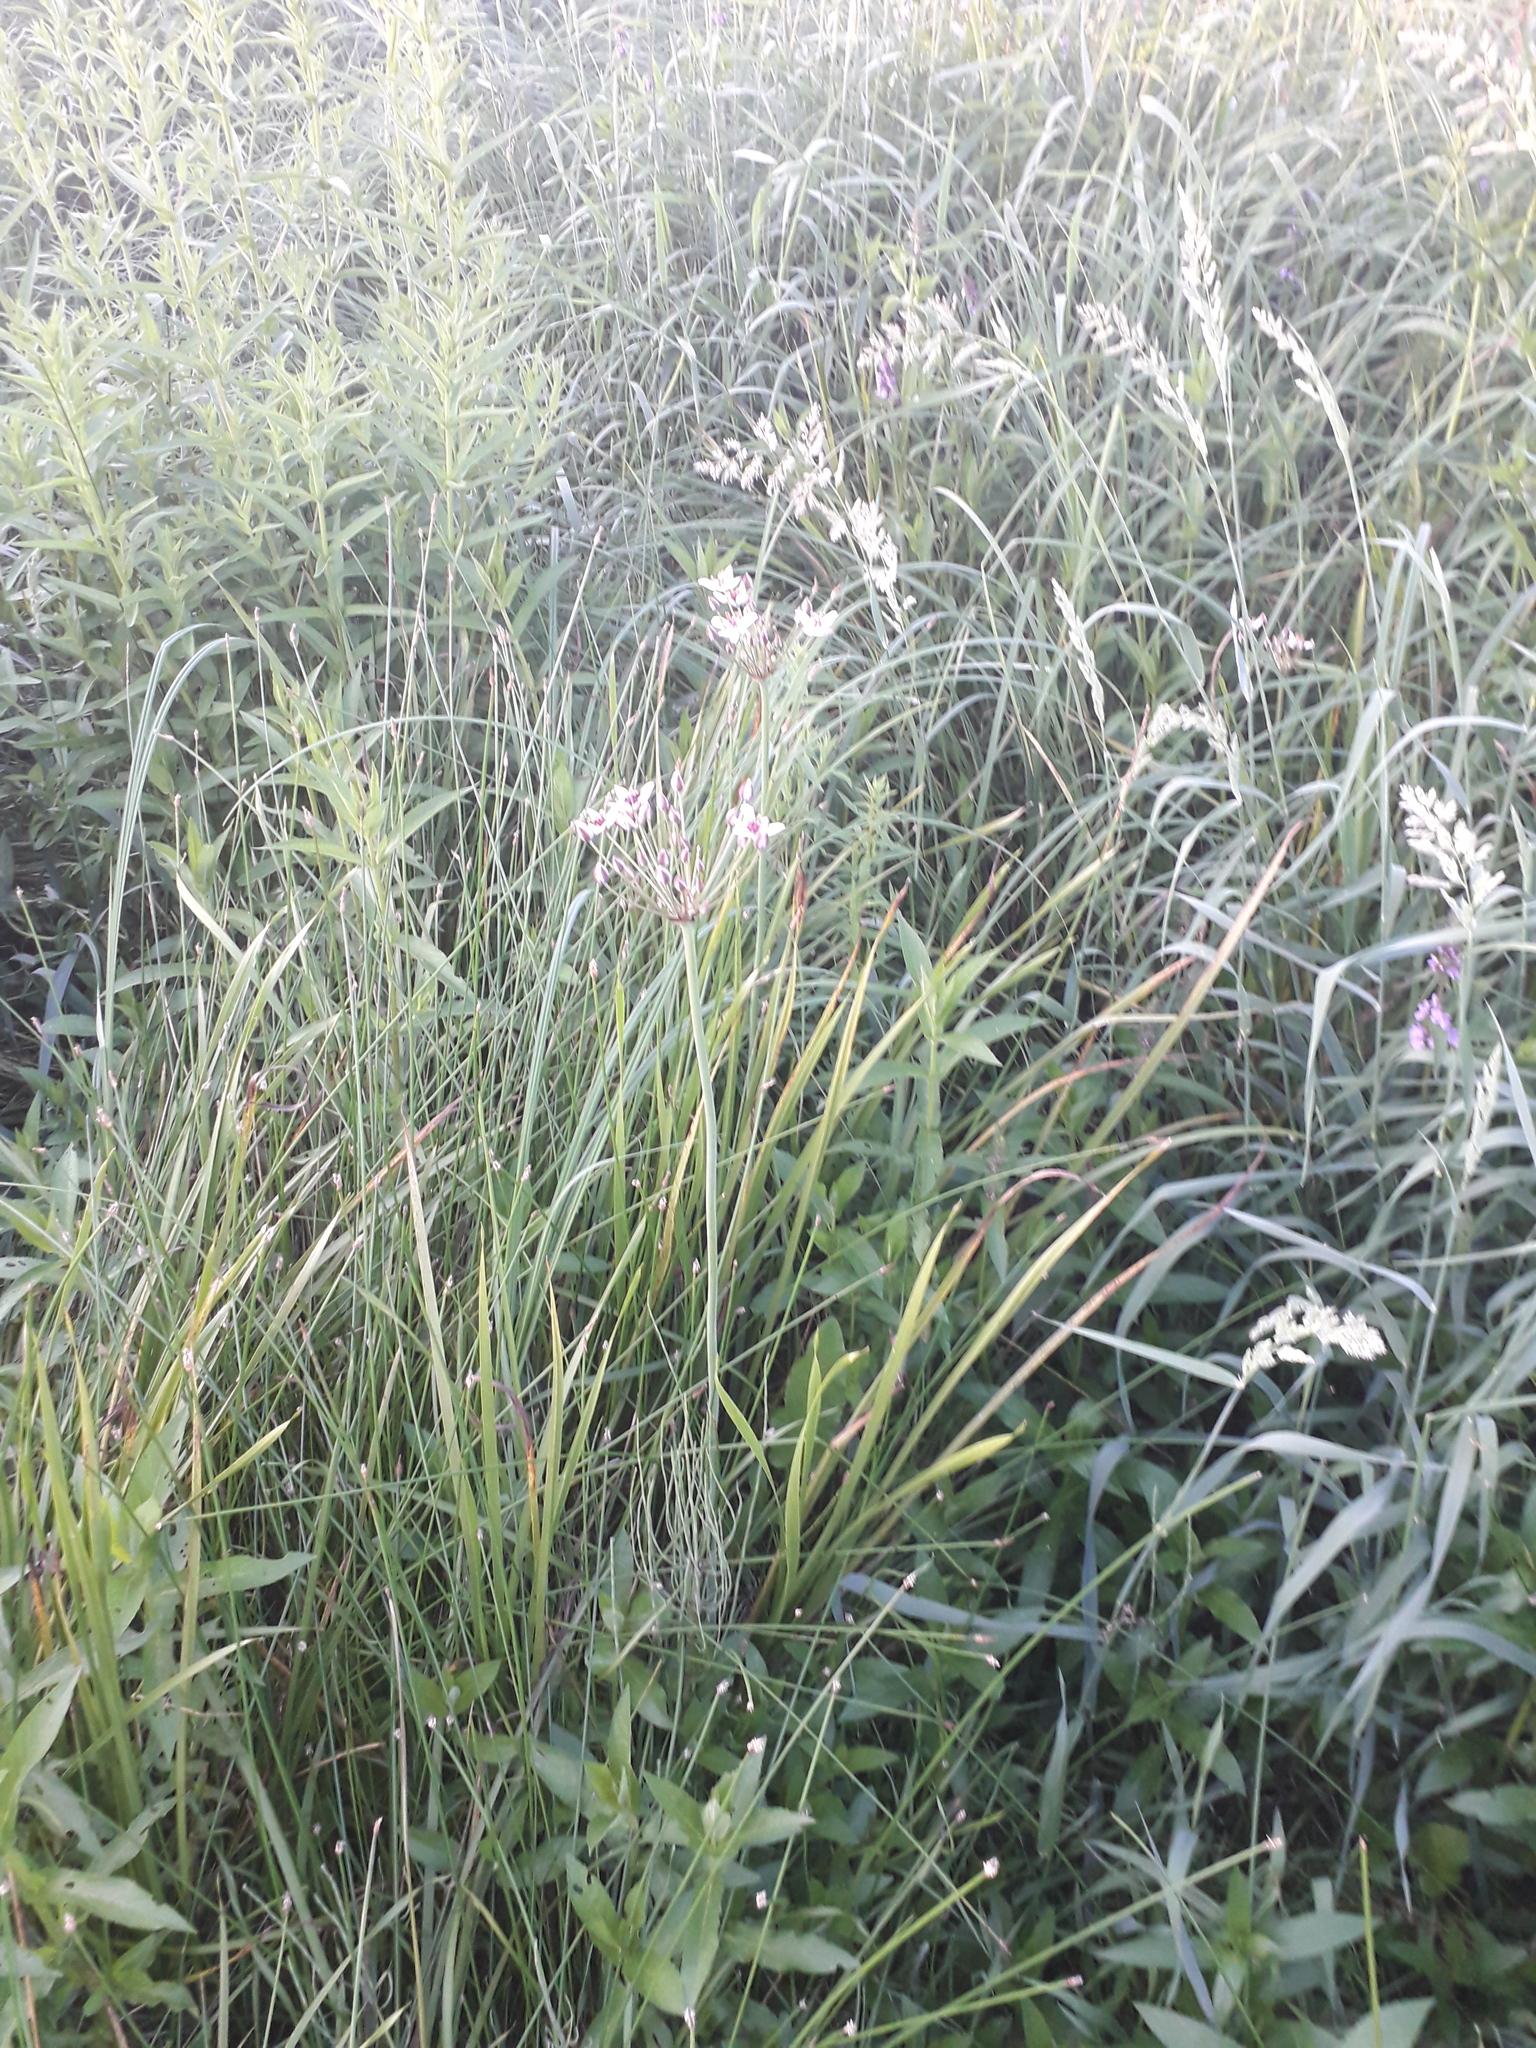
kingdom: Plantae
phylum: Tracheophyta
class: Liliopsida
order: Alismatales
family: Butomaceae
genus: Butomus
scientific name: Butomus umbellatus
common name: Flowering-rush
